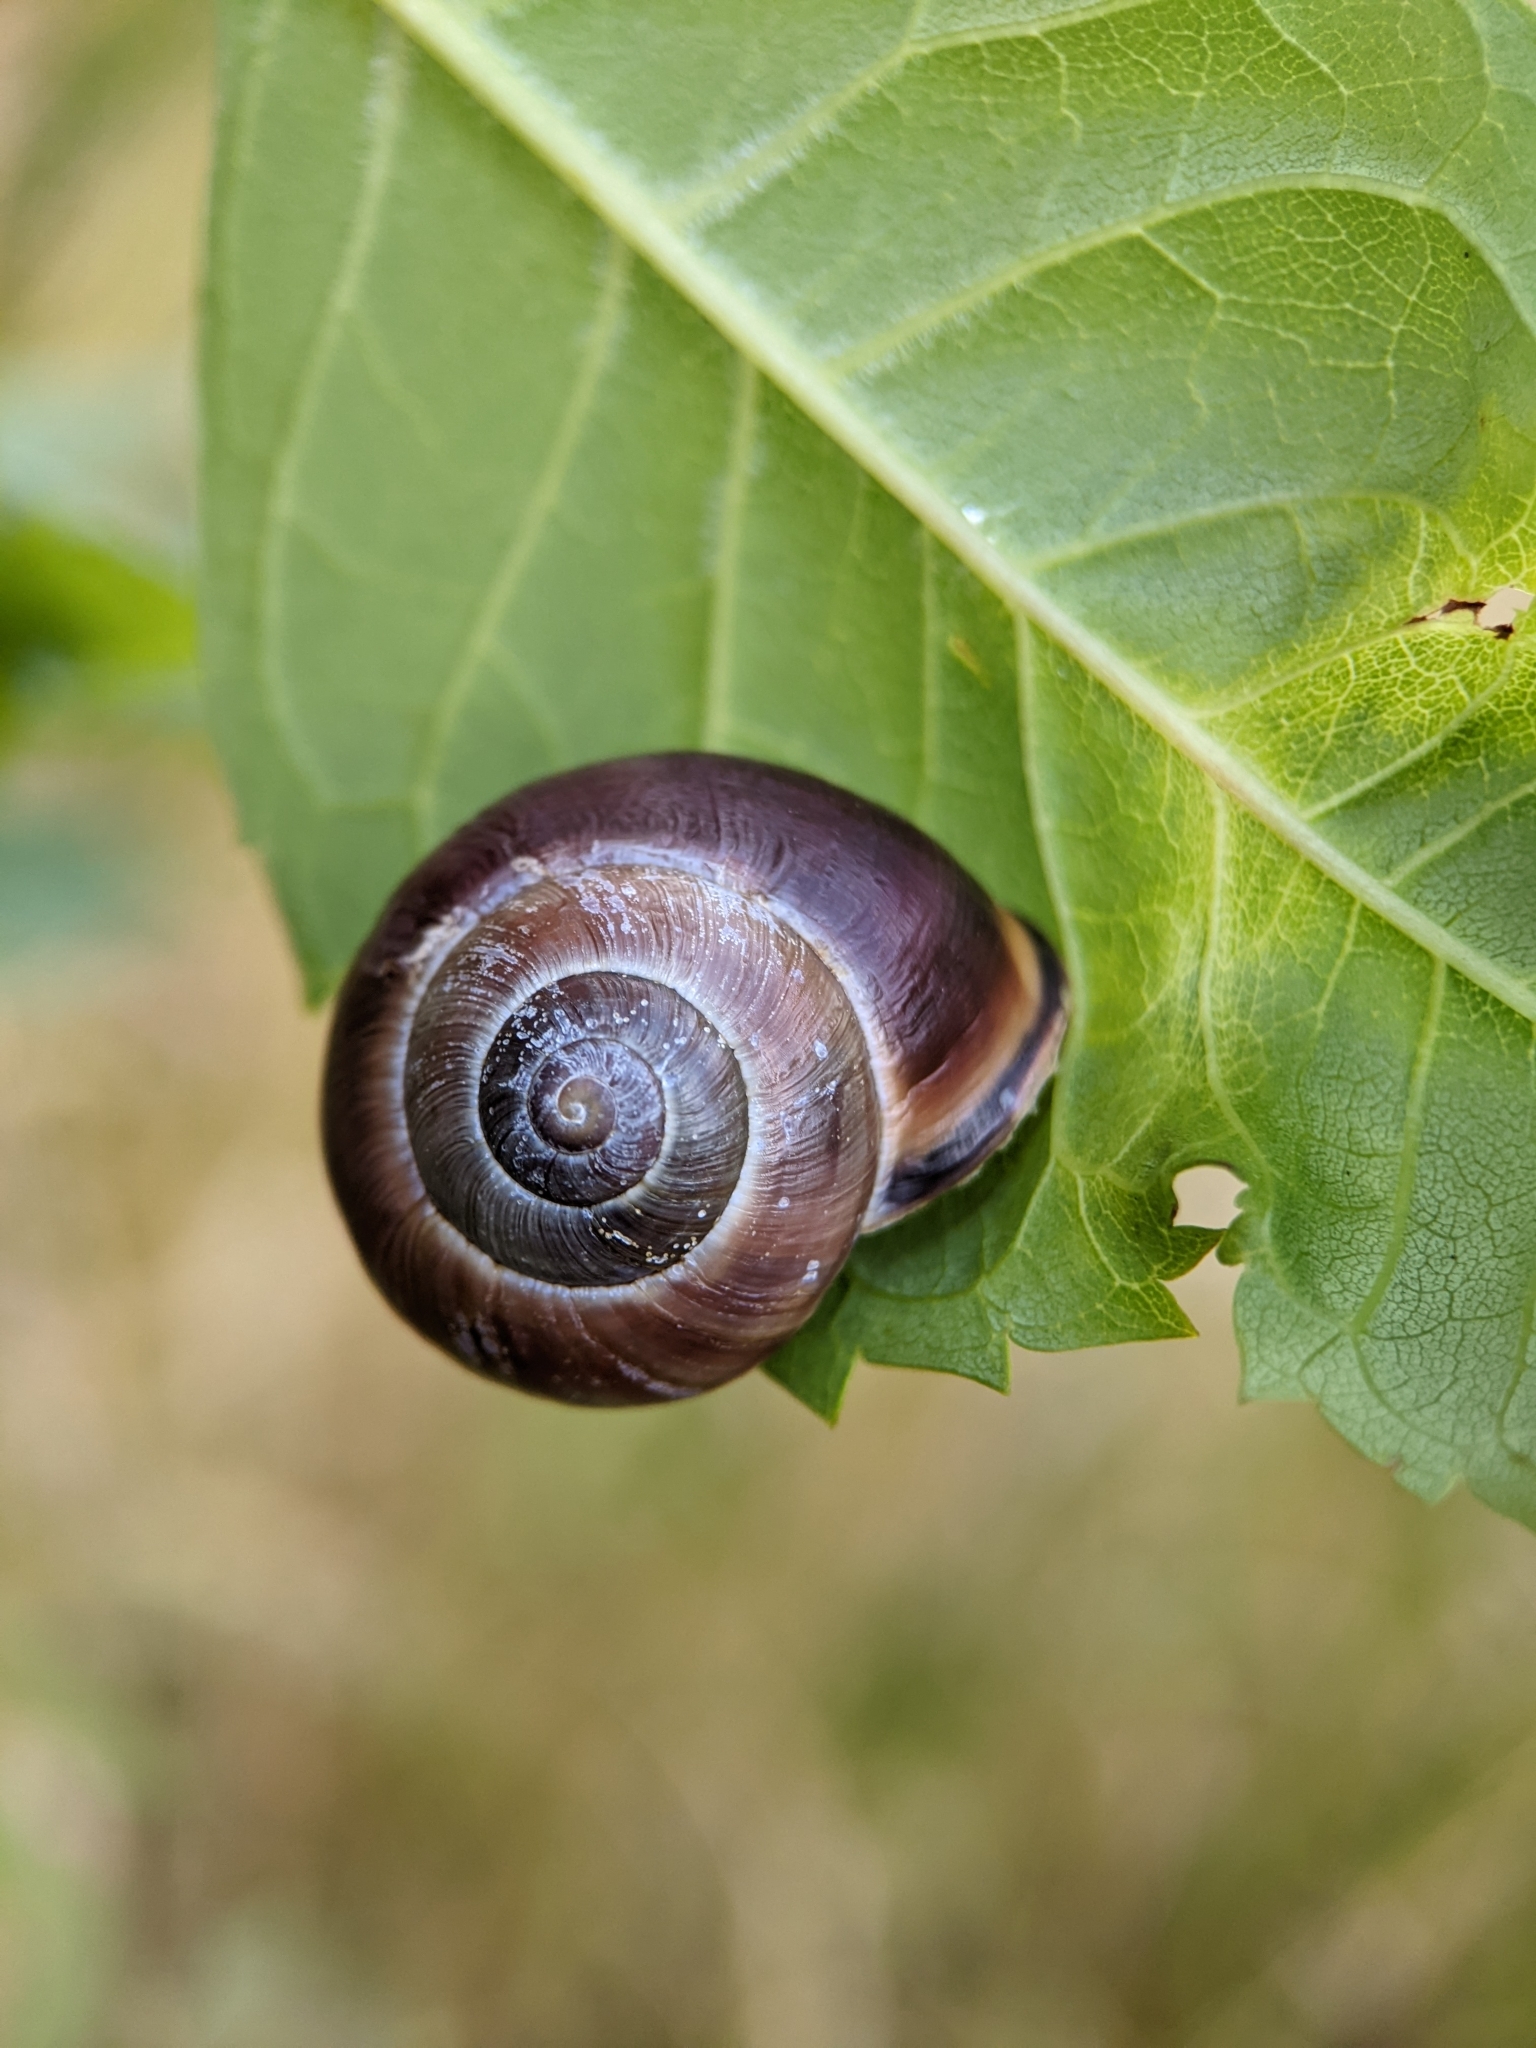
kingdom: Animalia
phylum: Mollusca
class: Gastropoda
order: Stylommatophora
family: Helicidae
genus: Cepaea
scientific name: Cepaea nemoralis
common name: Grovesnail
